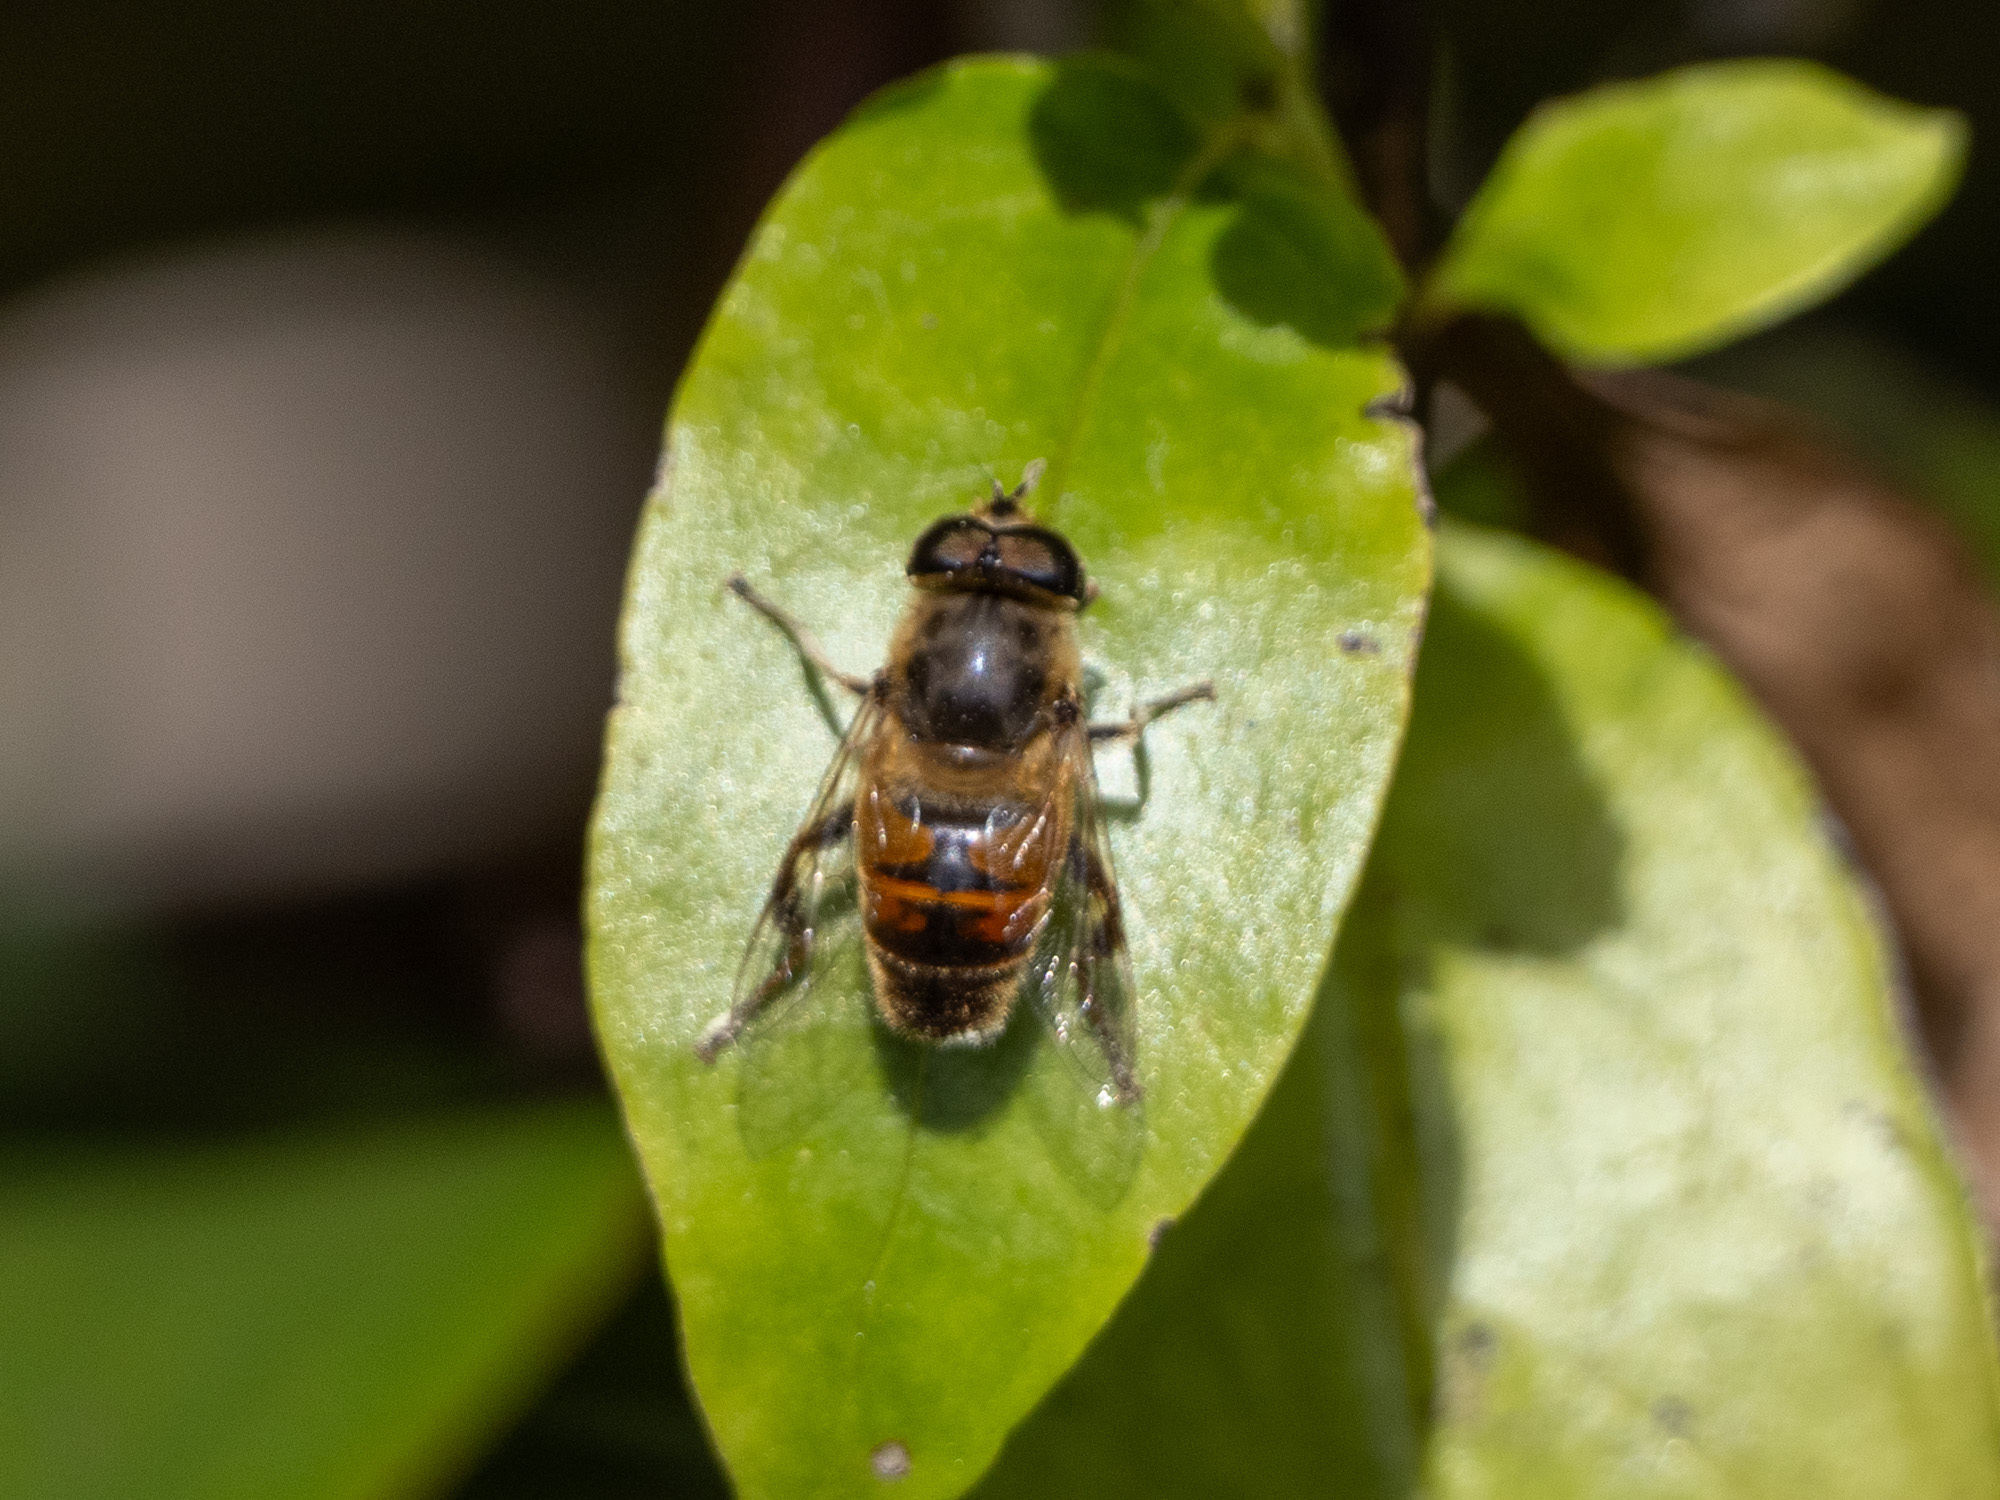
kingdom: Animalia
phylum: Arthropoda
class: Insecta
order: Diptera
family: Syrphidae
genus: Eristalis
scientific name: Eristalis tenax
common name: Drone fly
